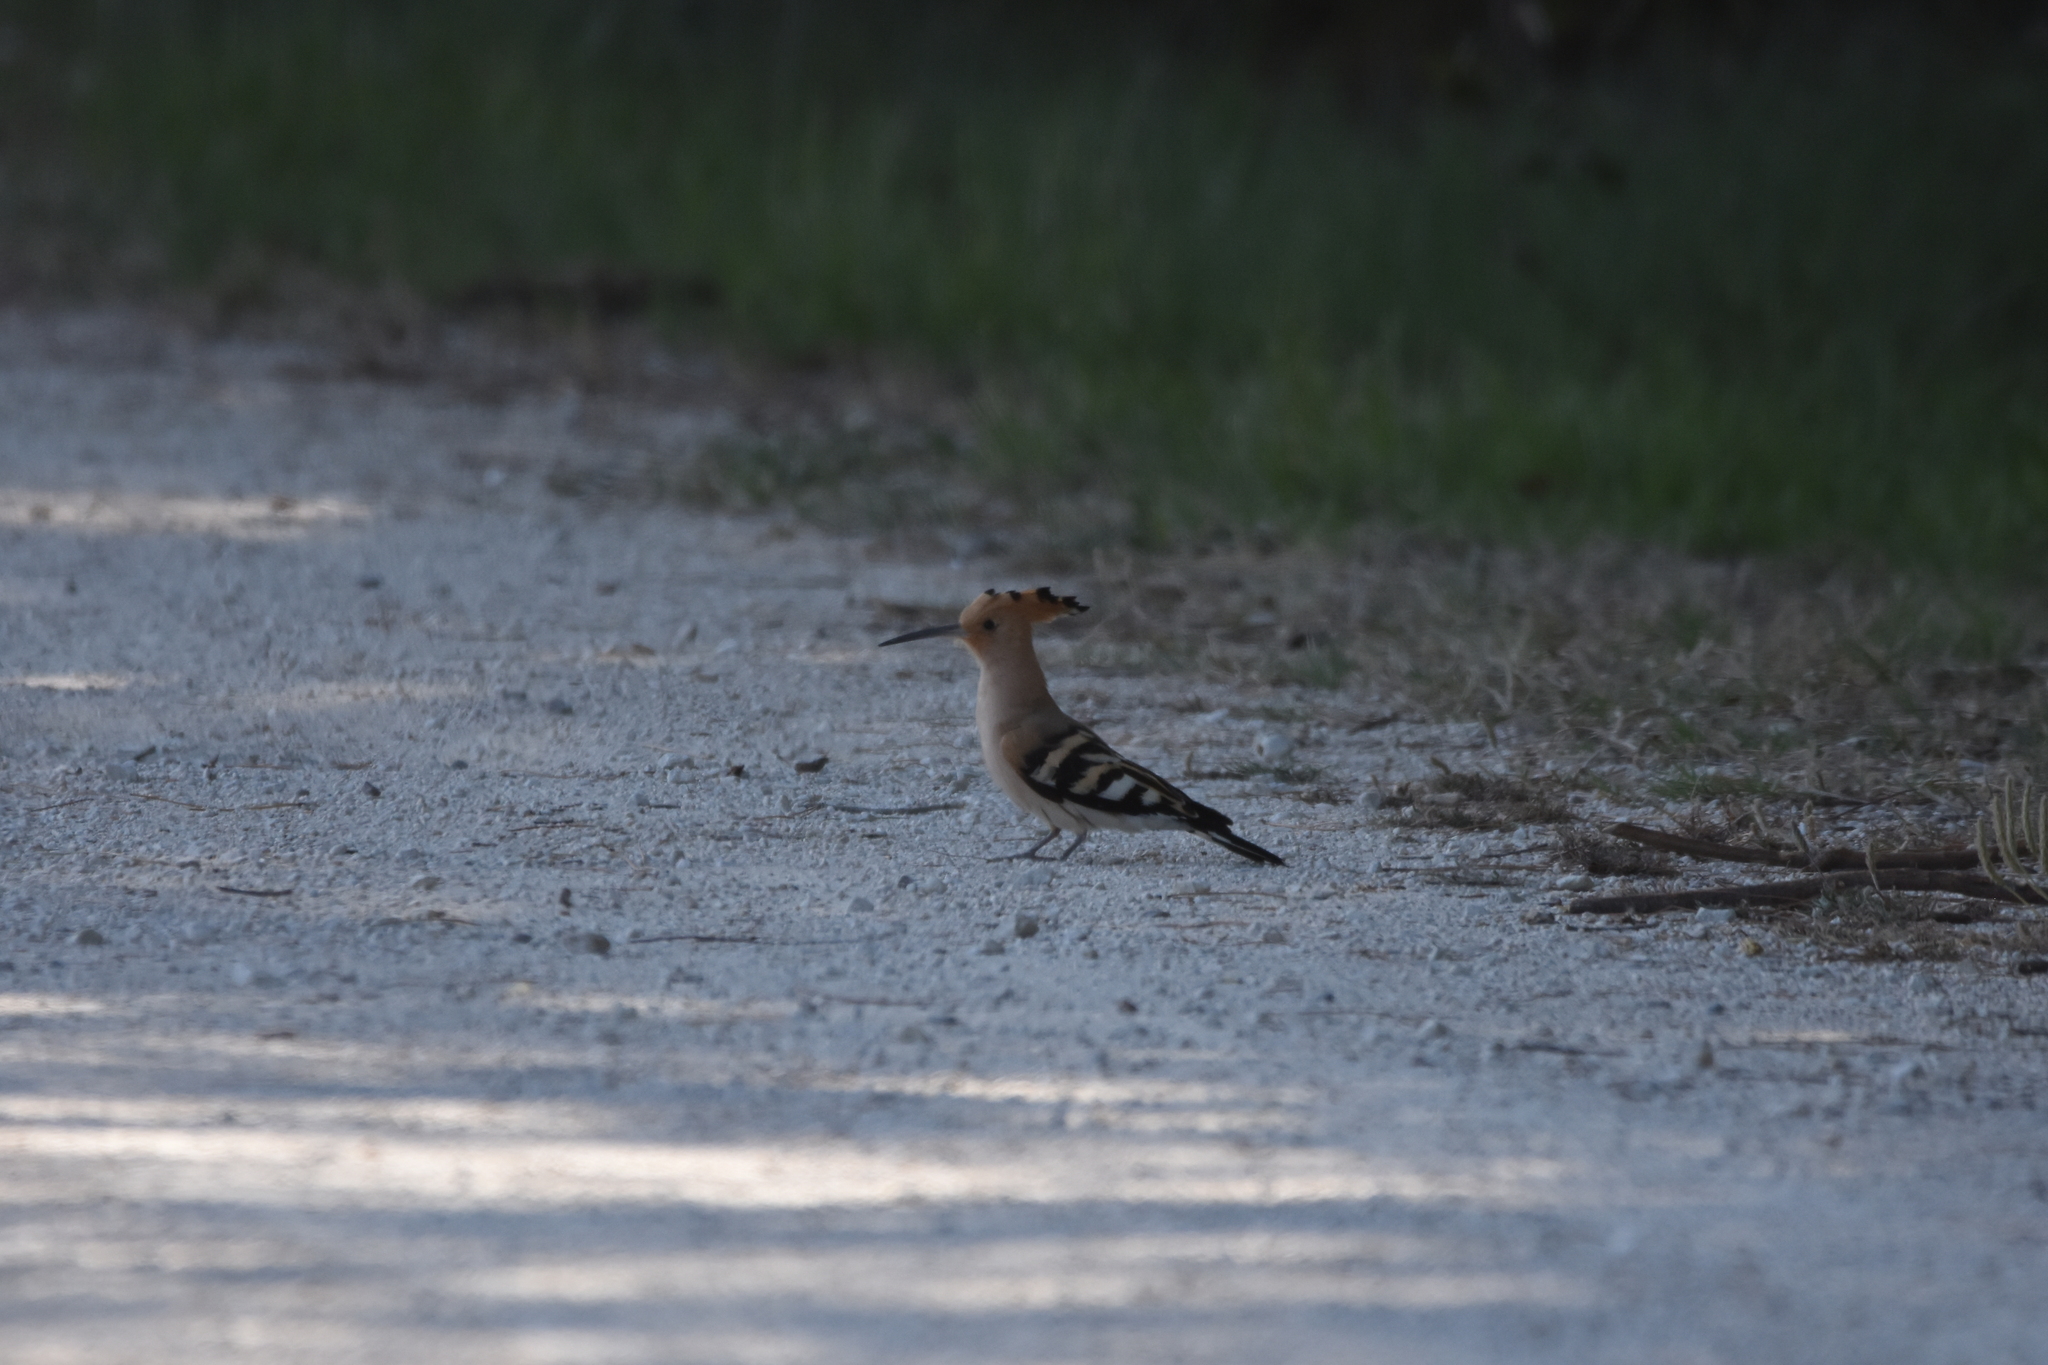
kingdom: Animalia
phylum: Chordata
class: Aves
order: Bucerotiformes
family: Upupidae
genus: Upupa
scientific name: Upupa epops
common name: Eurasian hoopoe
